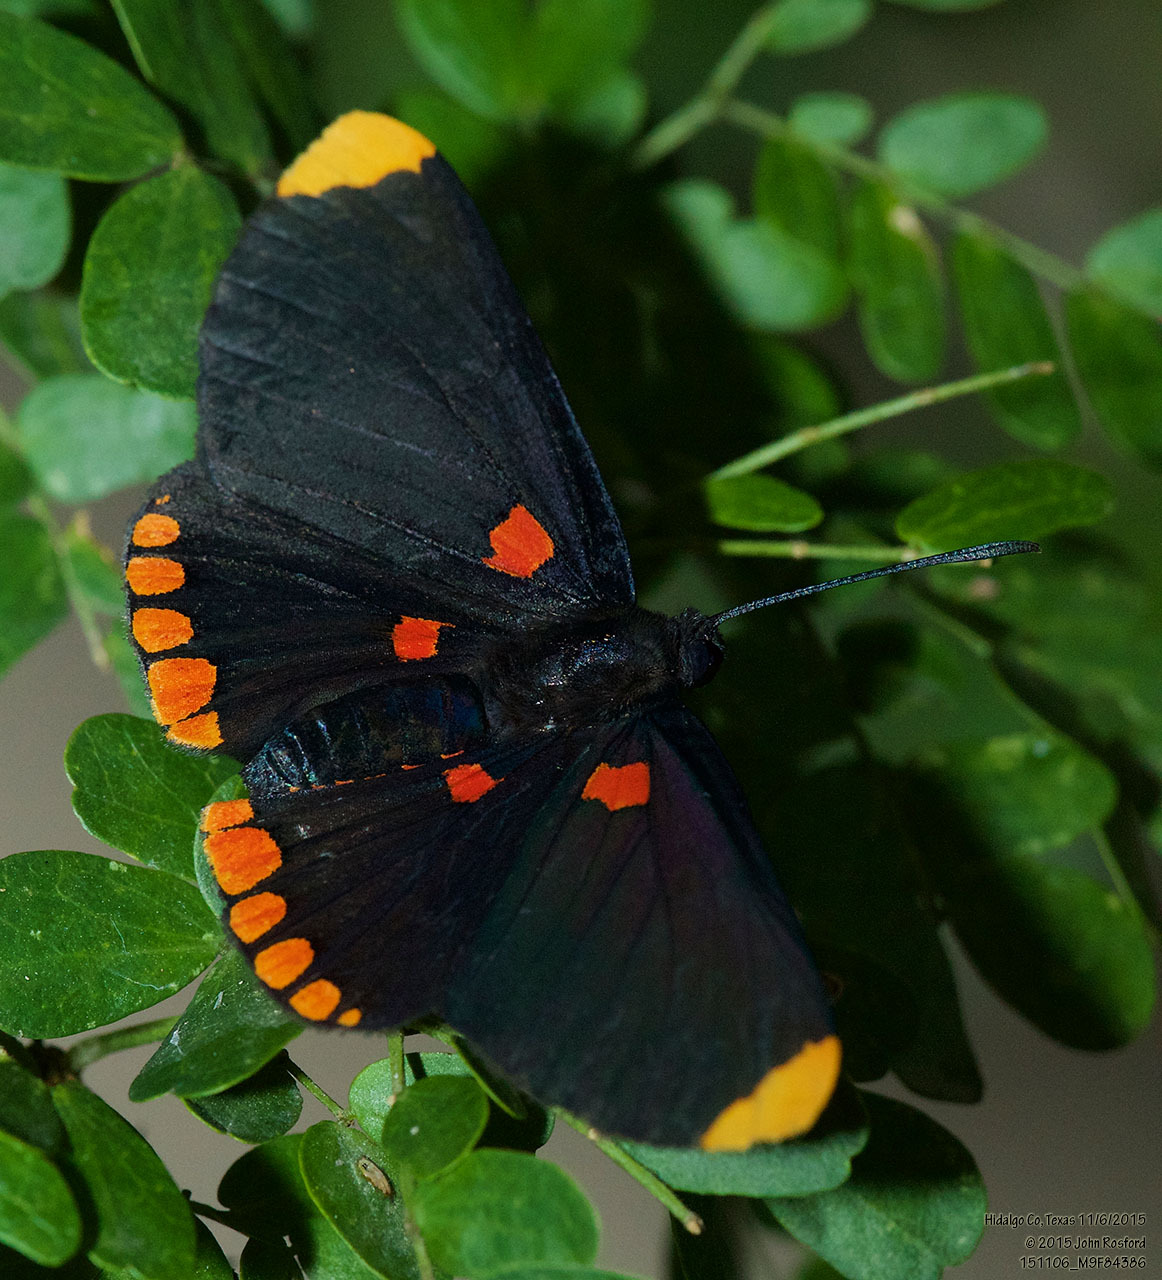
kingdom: Animalia
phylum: Arthropoda
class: Insecta
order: Lepidoptera
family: Lycaenidae
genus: Melanis
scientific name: Melanis pixe
